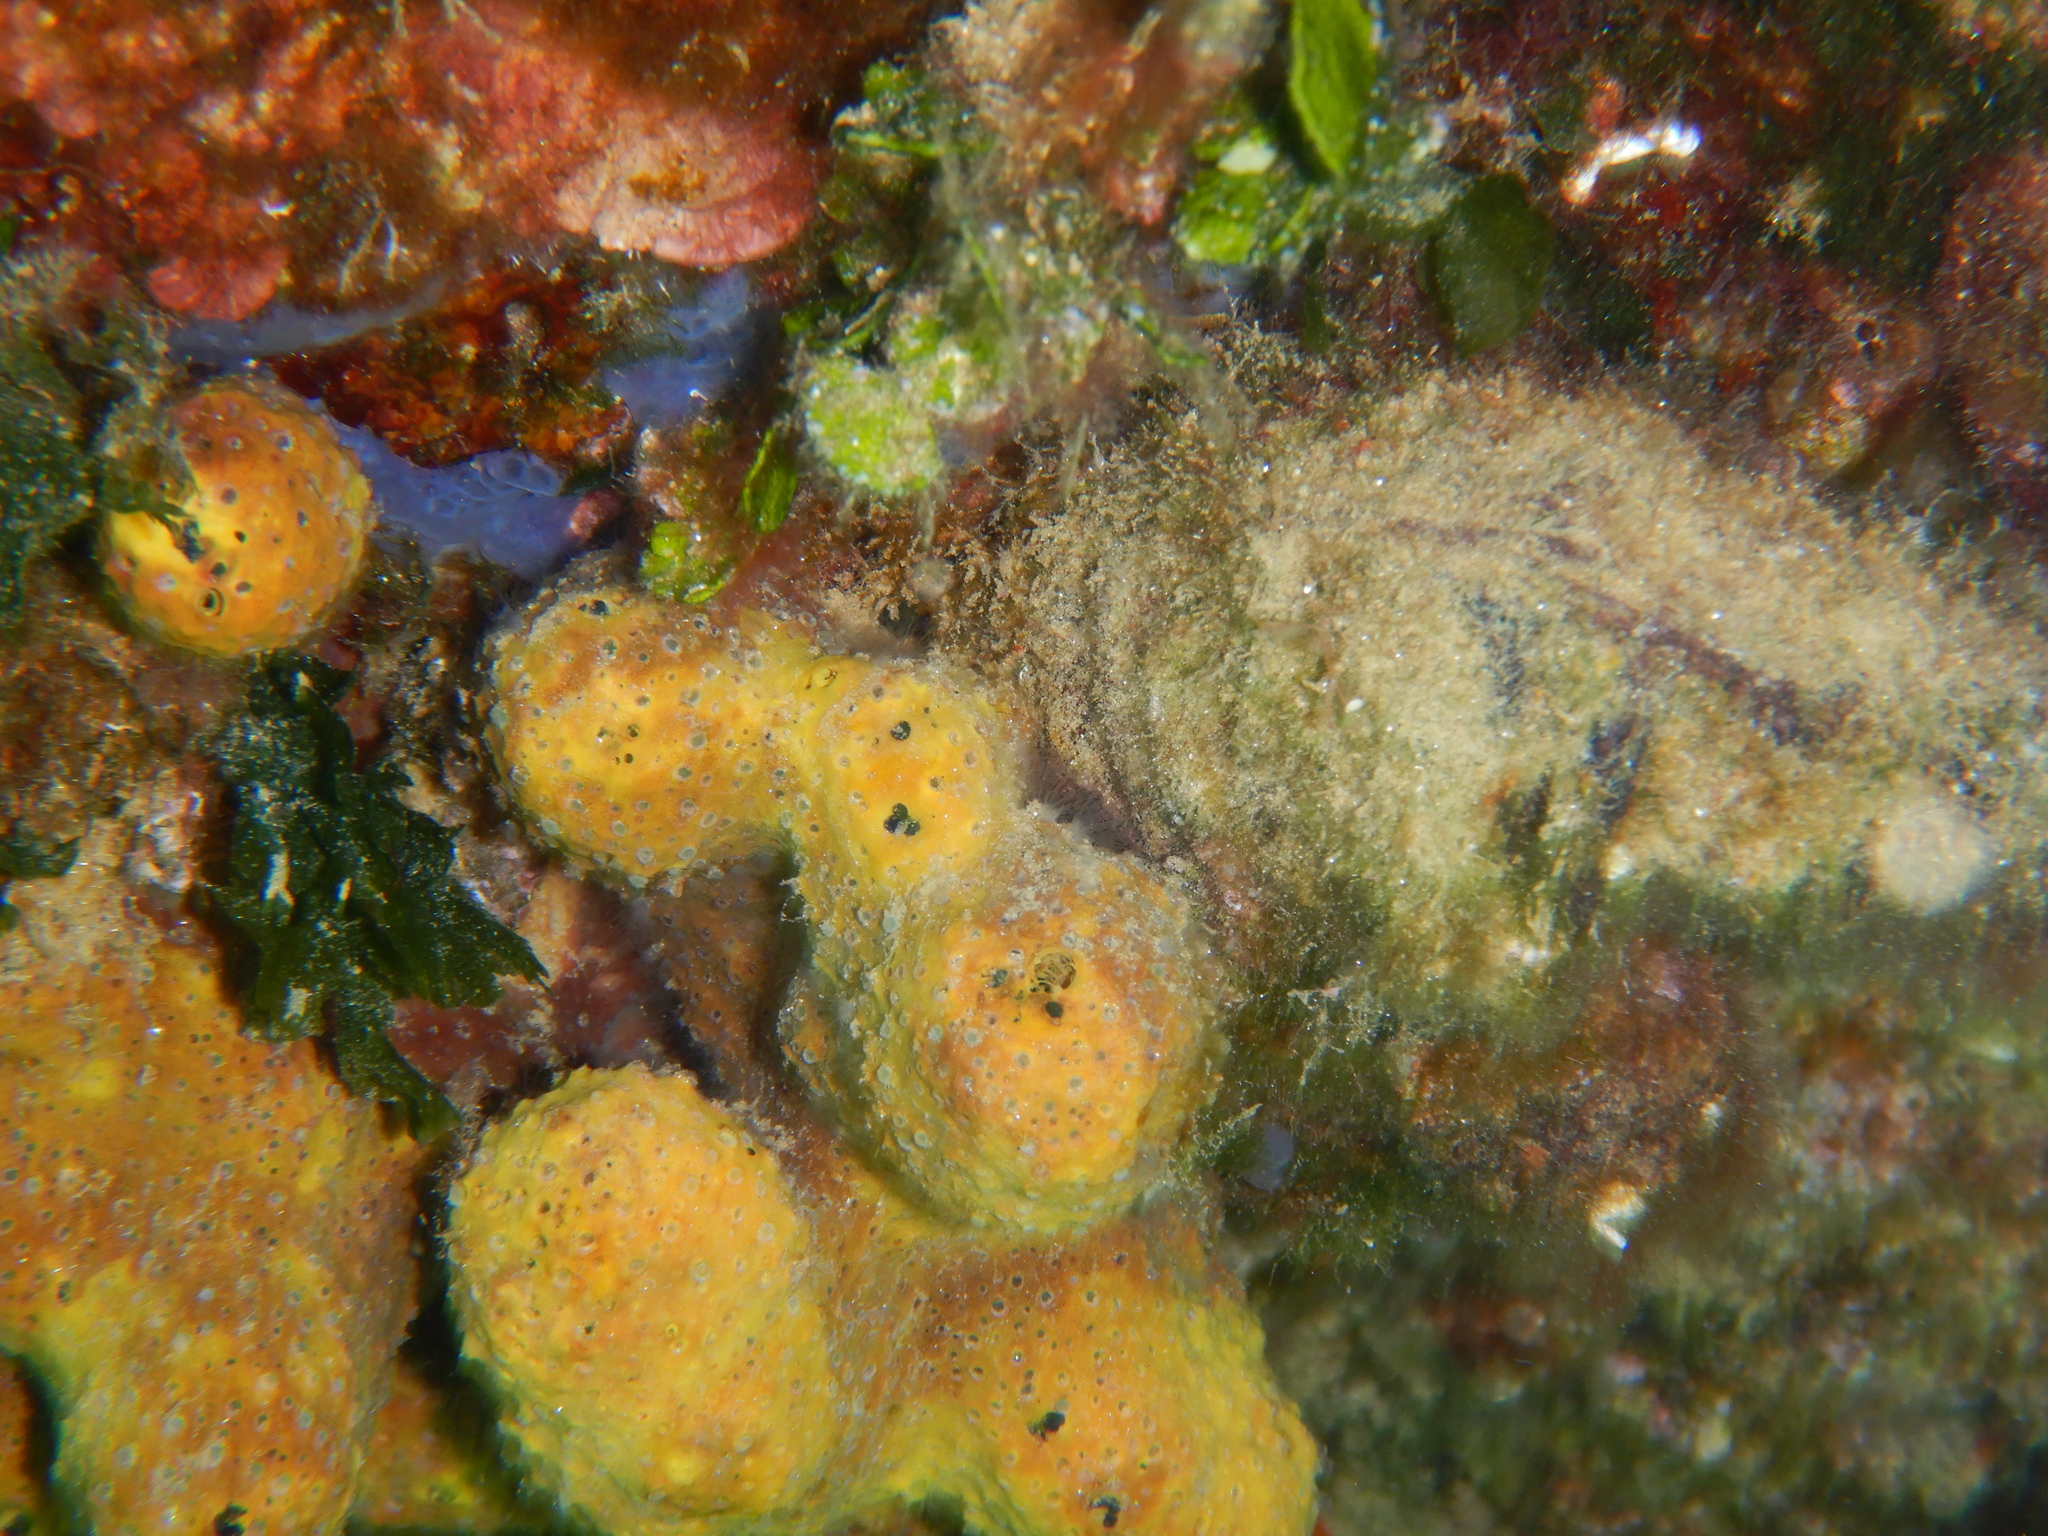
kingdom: Animalia
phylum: Porifera
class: Demospongiae
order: Verongiida
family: Aplysinidae
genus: Aplysina
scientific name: Aplysina aerophoba
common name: Aureate sponge
